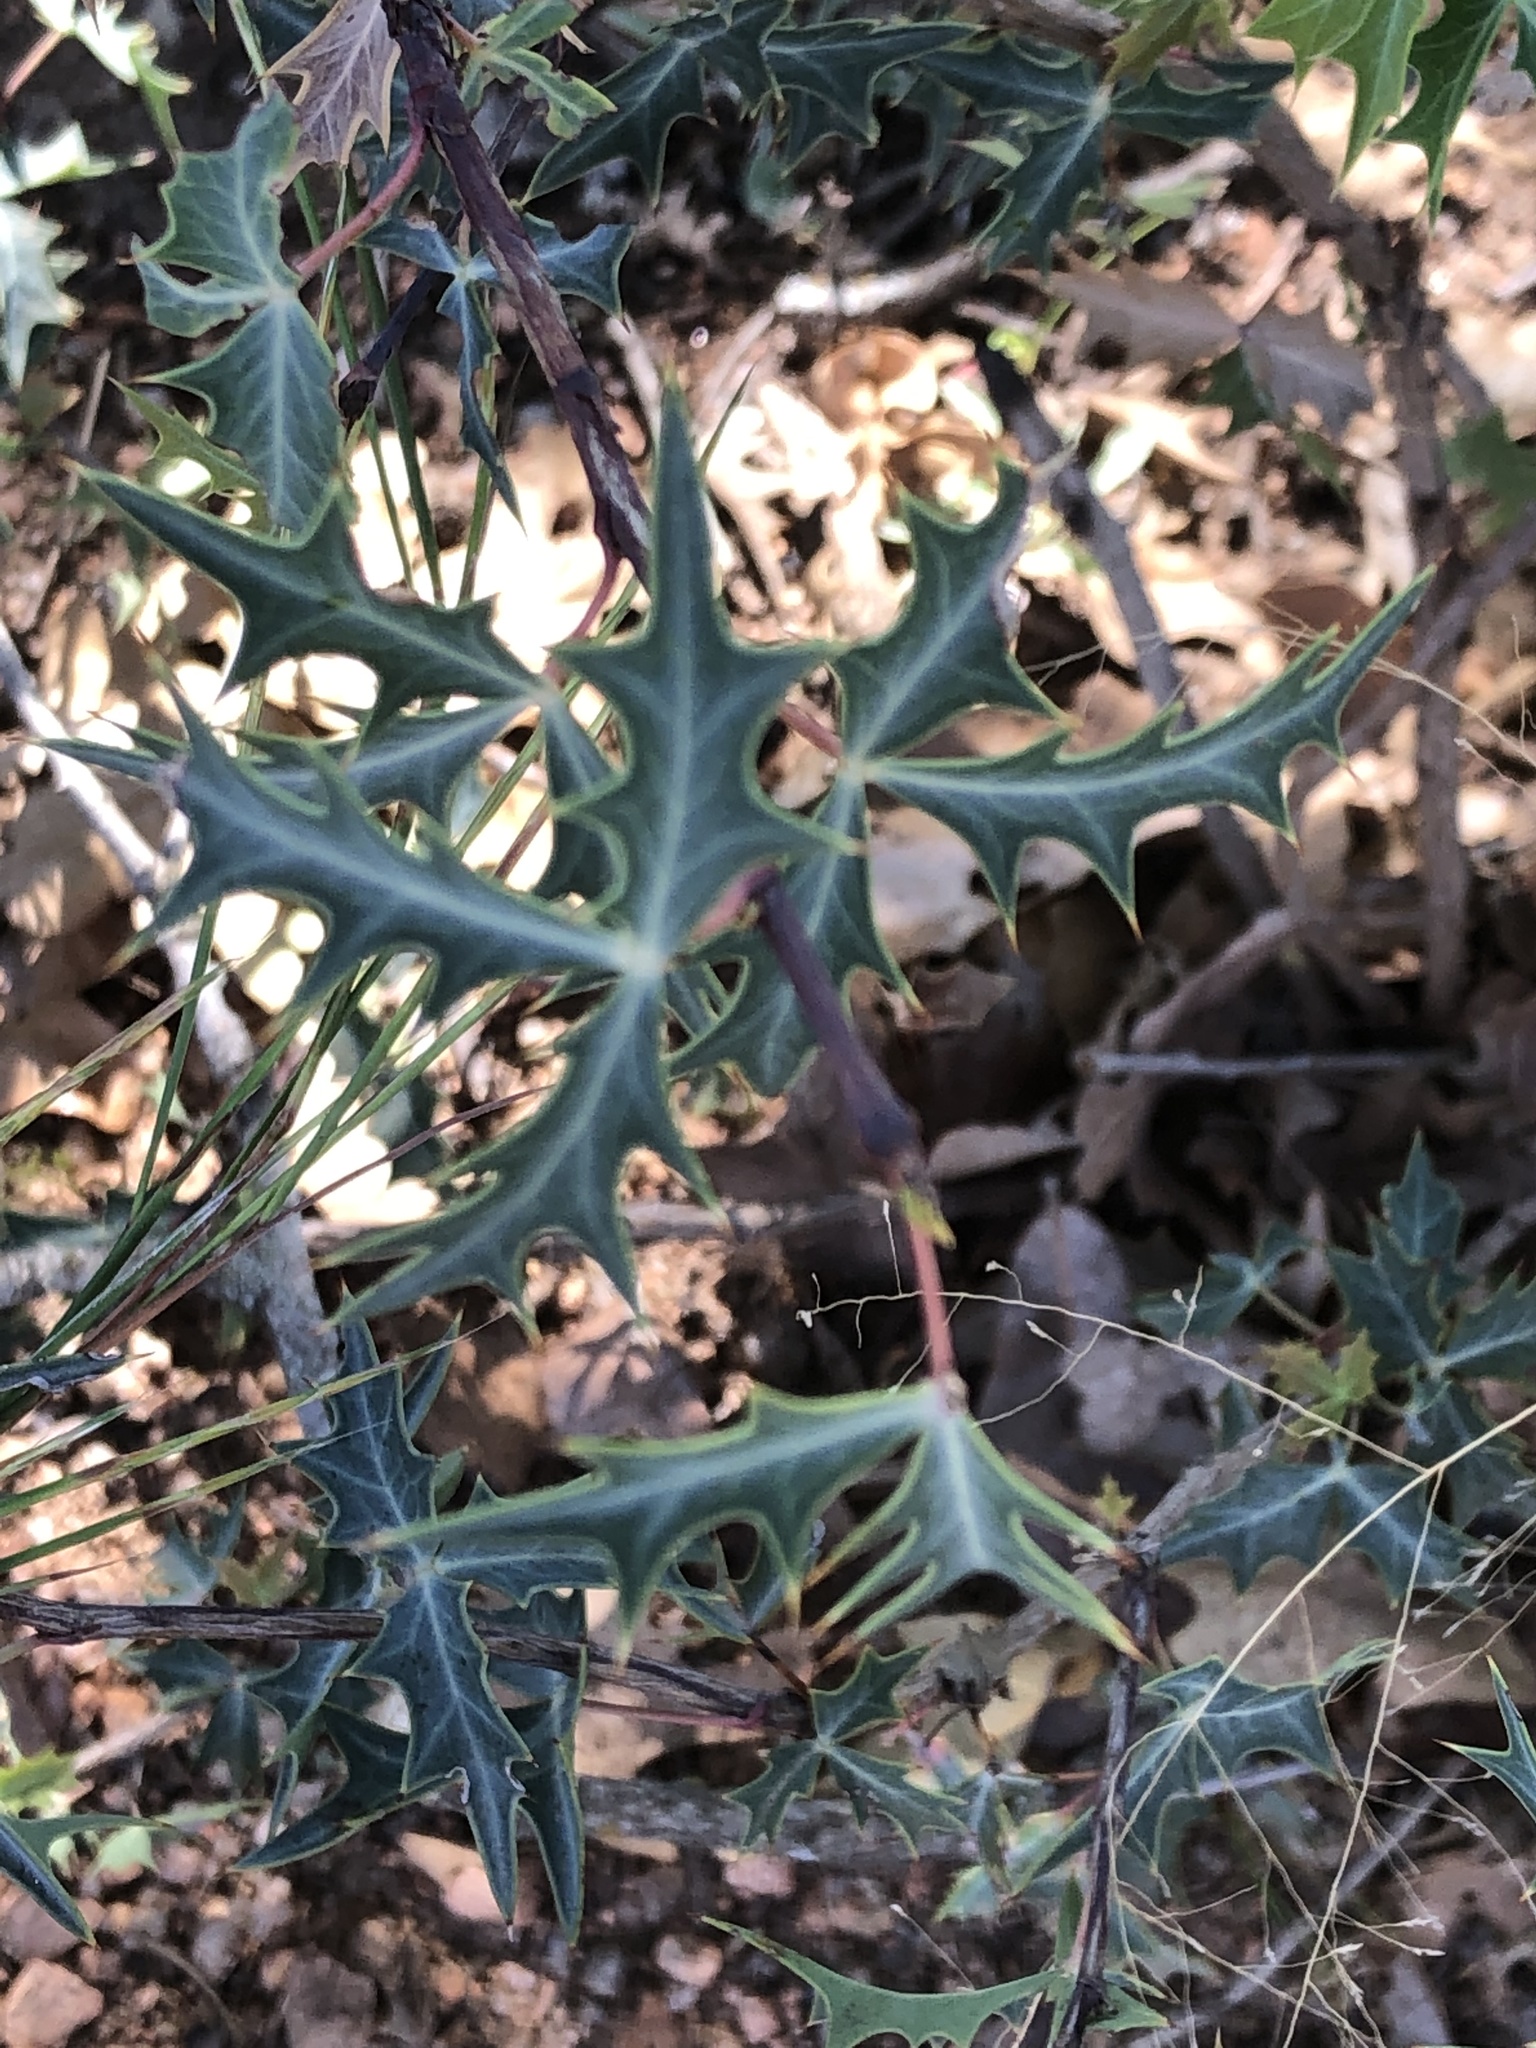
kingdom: Plantae
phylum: Tracheophyta
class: Magnoliopsida
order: Ranunculales
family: Berberidaceae
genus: Alloberberis
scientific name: Alloberberis trifoliolata
